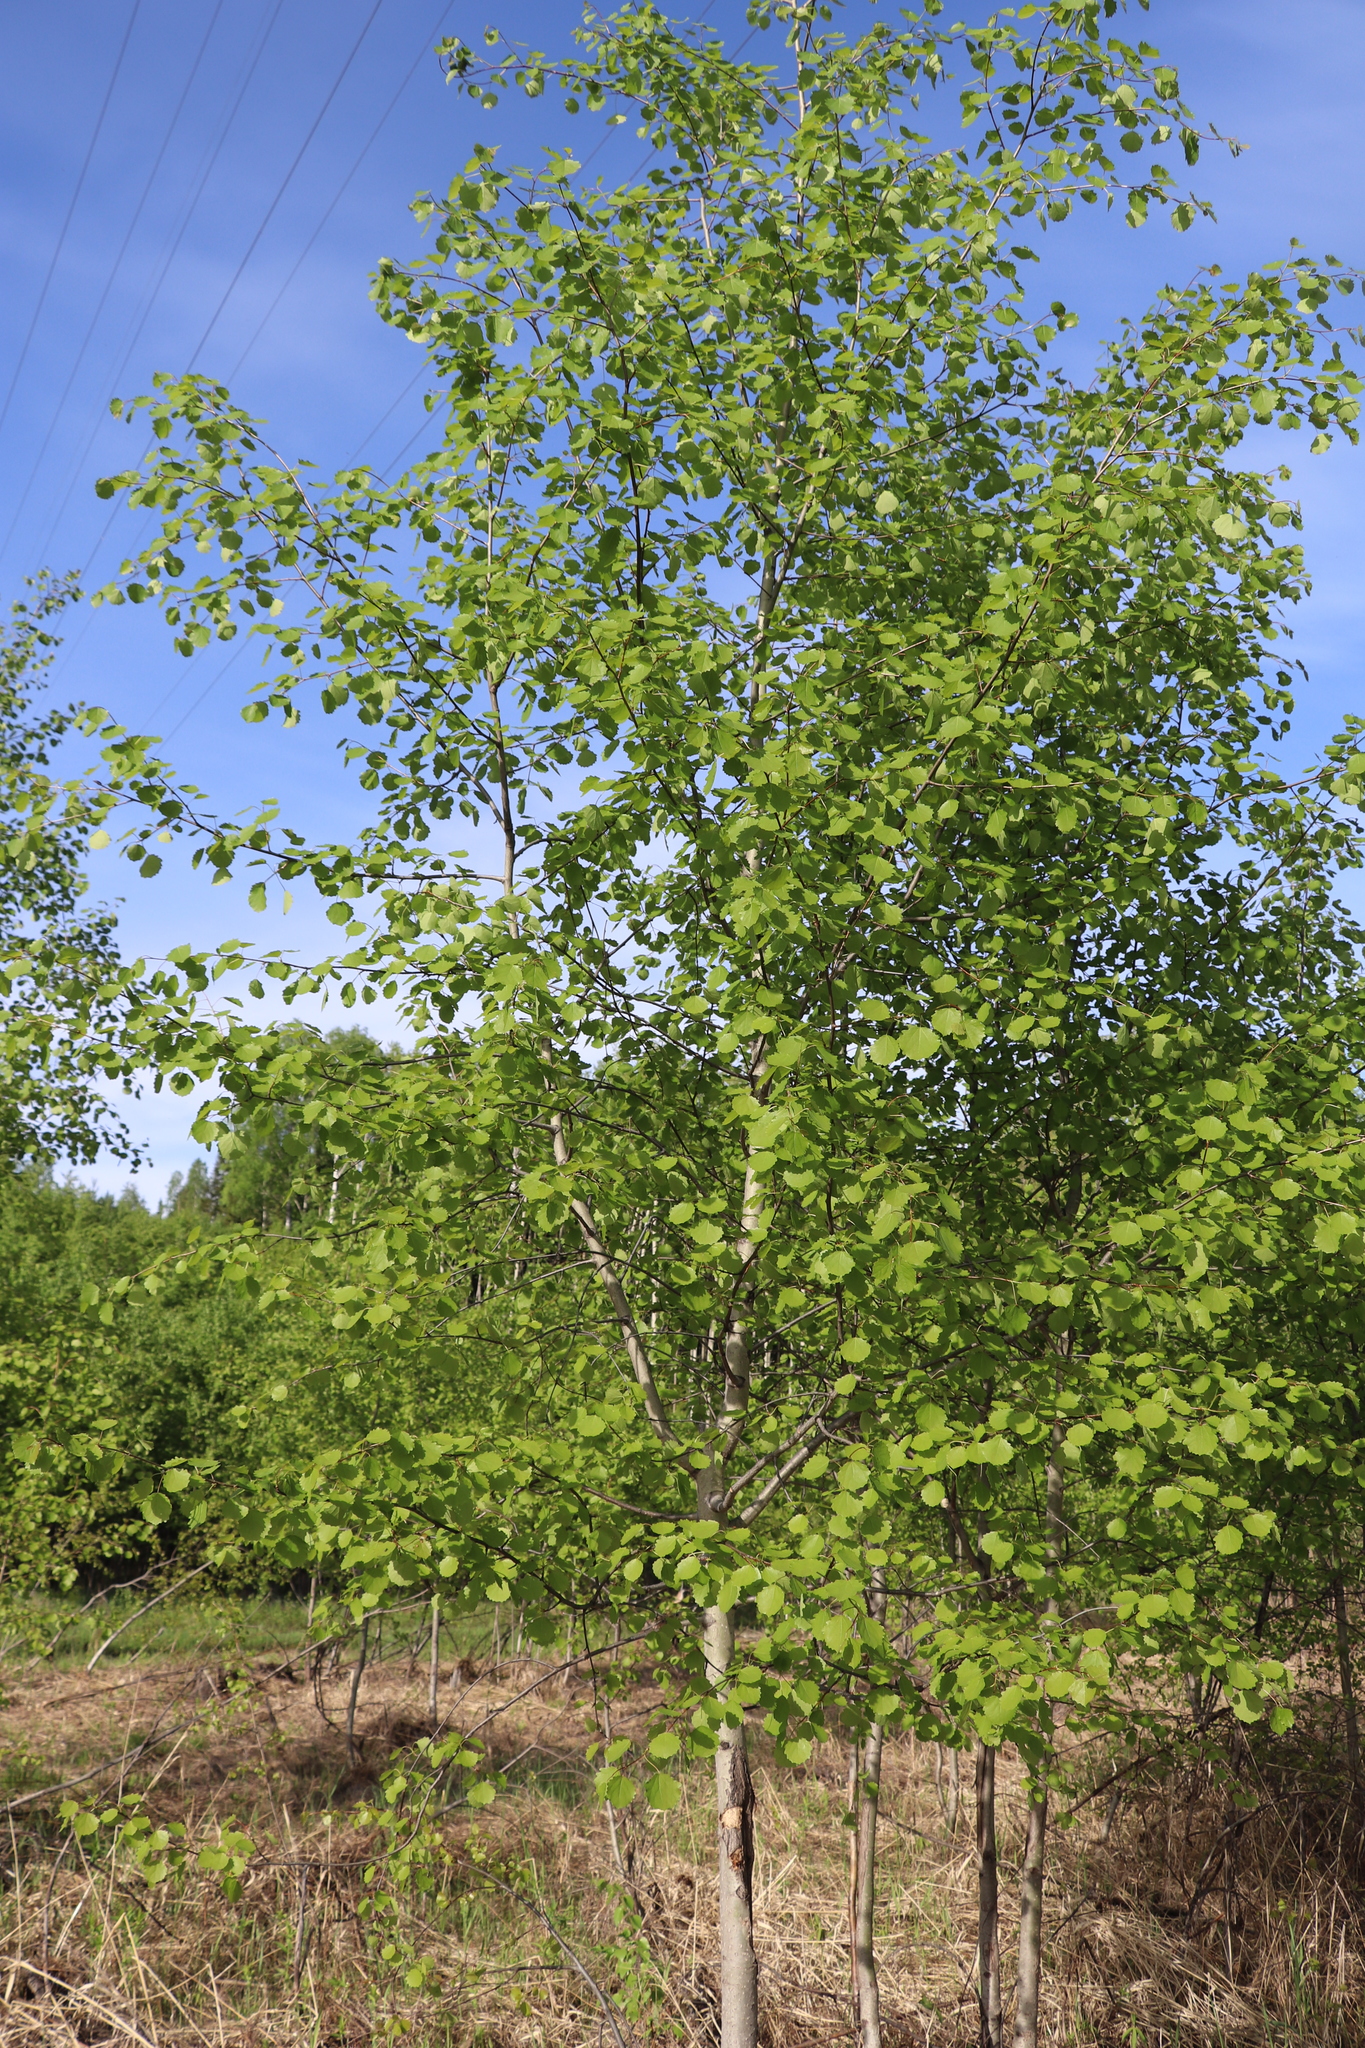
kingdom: Plantae
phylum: Tracheophyta
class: Magnoliopsida
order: Malpighiales
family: Salicaceae
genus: Populus
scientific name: Populus tremula
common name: European aspen
